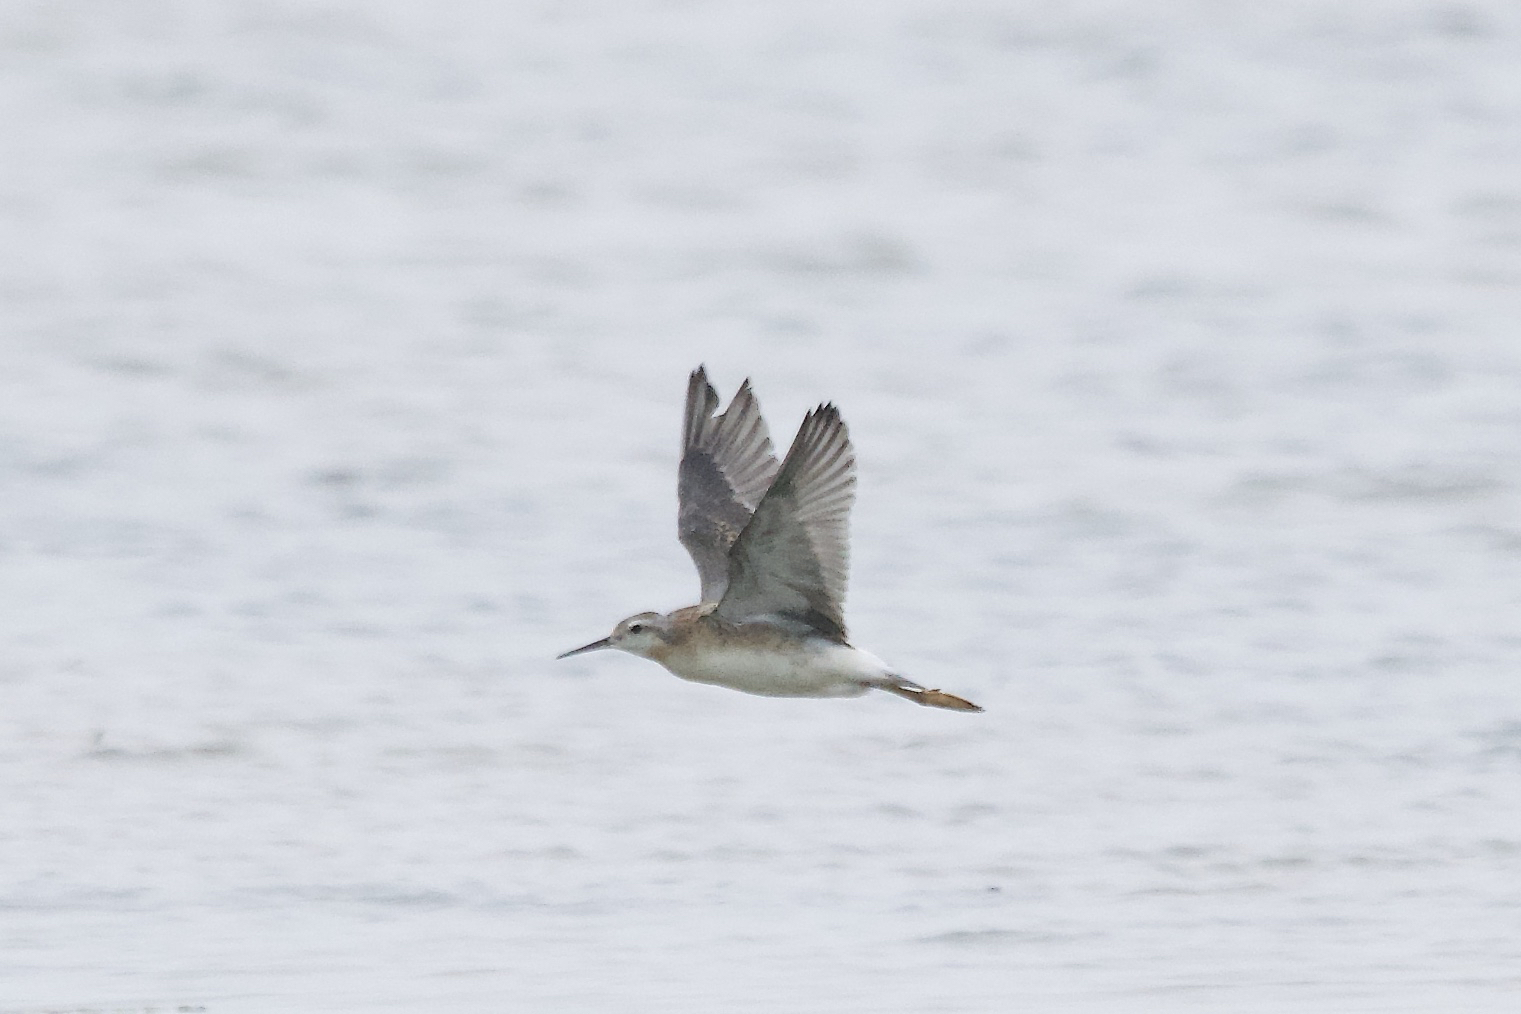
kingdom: Animalia
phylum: Chordata
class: Aves
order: Charadriiformes
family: Scolopacidae
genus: Phalaropus
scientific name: Phalaropus tricolor
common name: Wilson's phalarope
